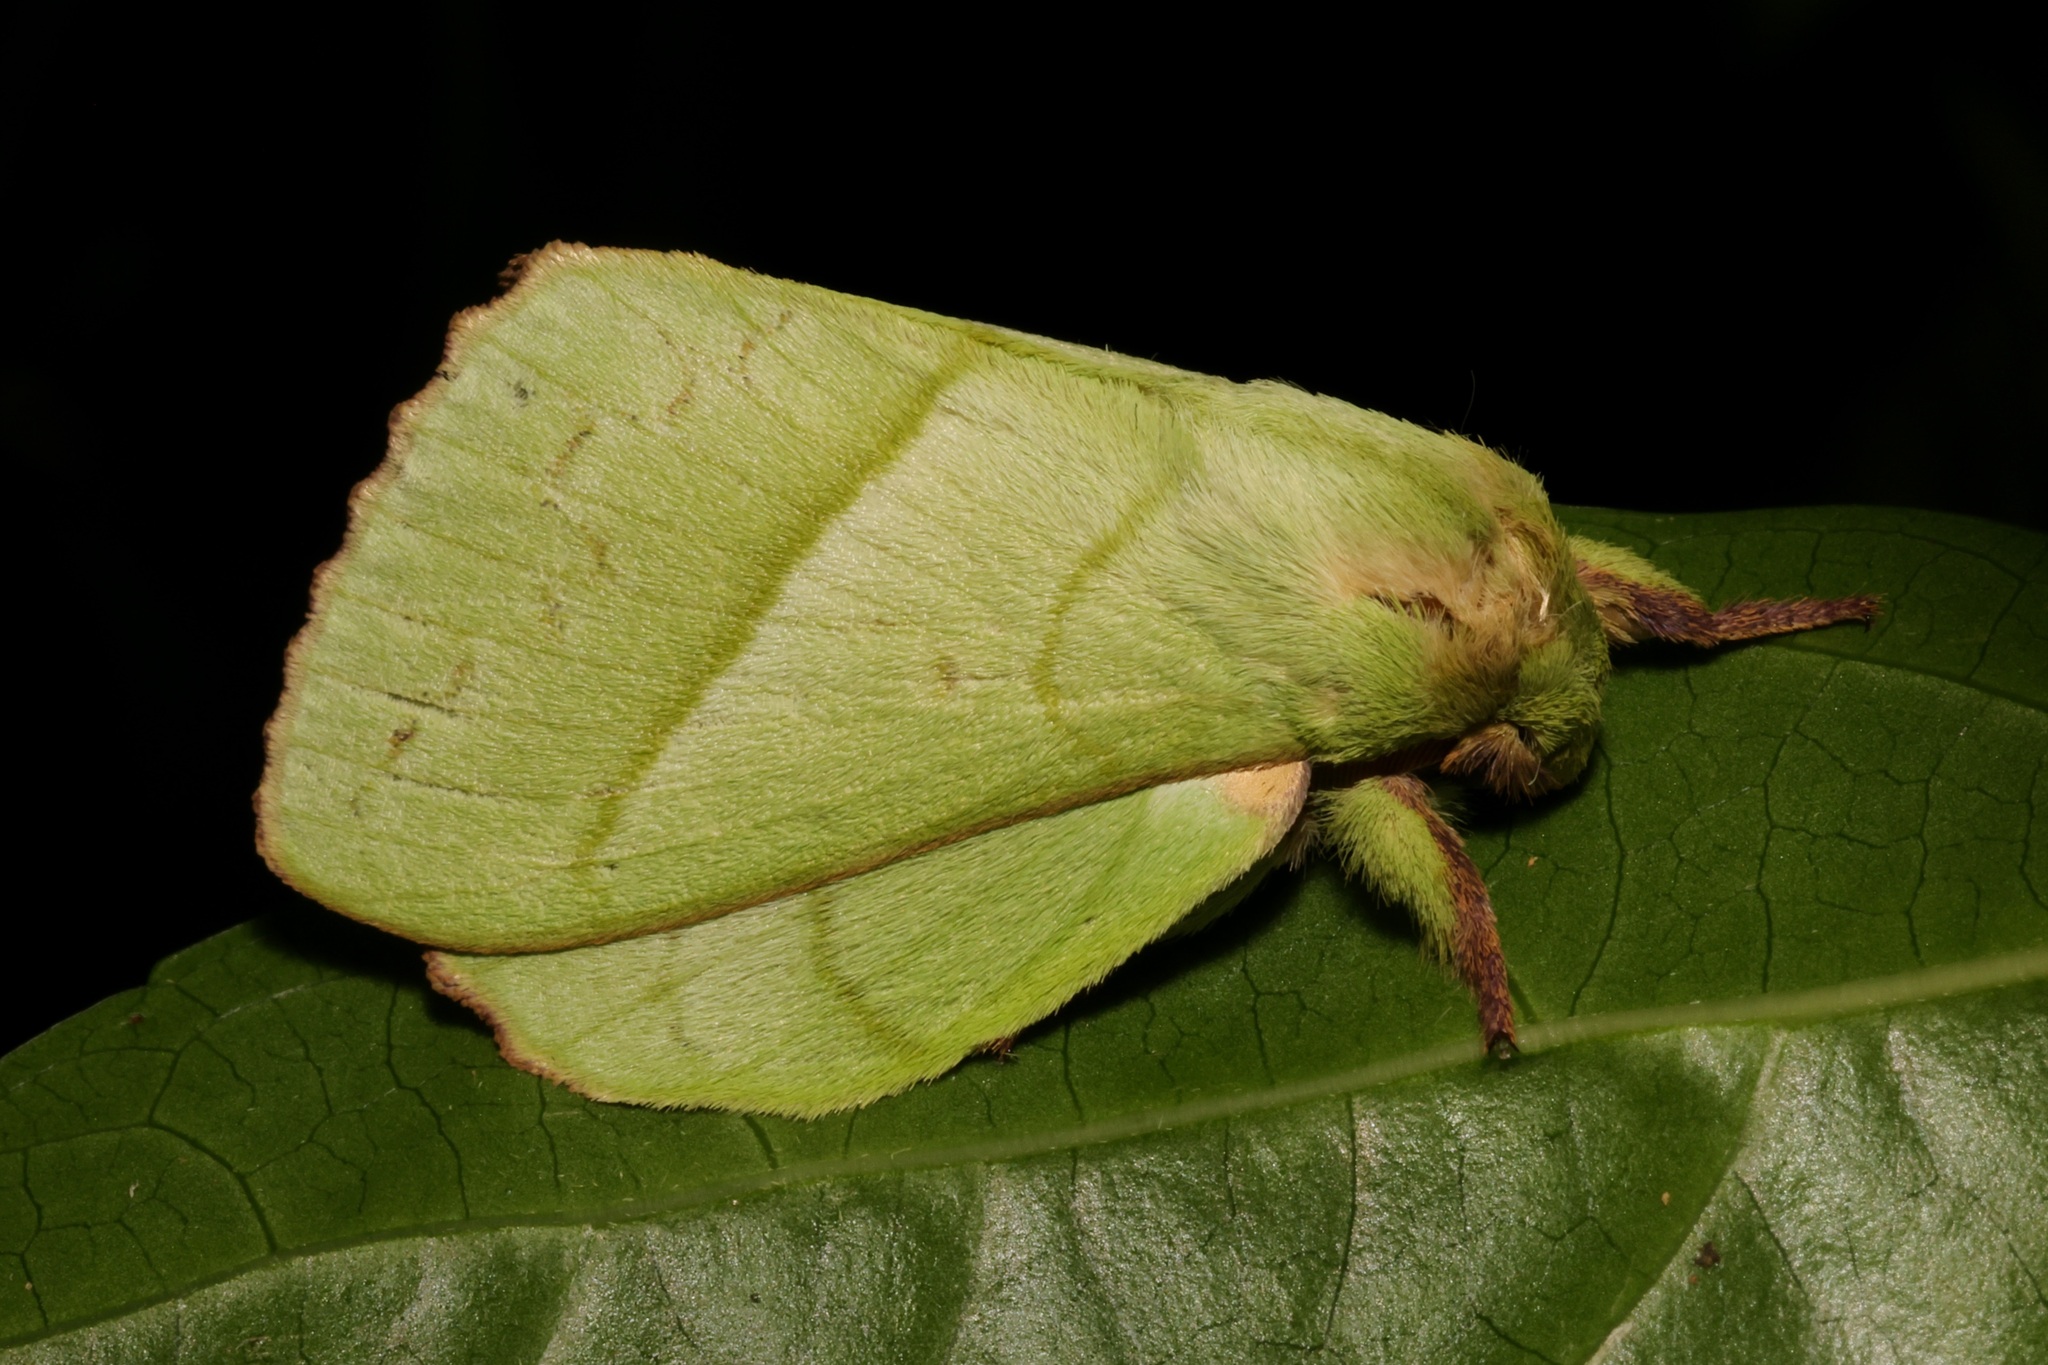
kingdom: Animalia
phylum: Arthropoda
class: Insecta
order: Lepidoptera
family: Lasiocampidae
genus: Trabala
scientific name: Trabala pallida
